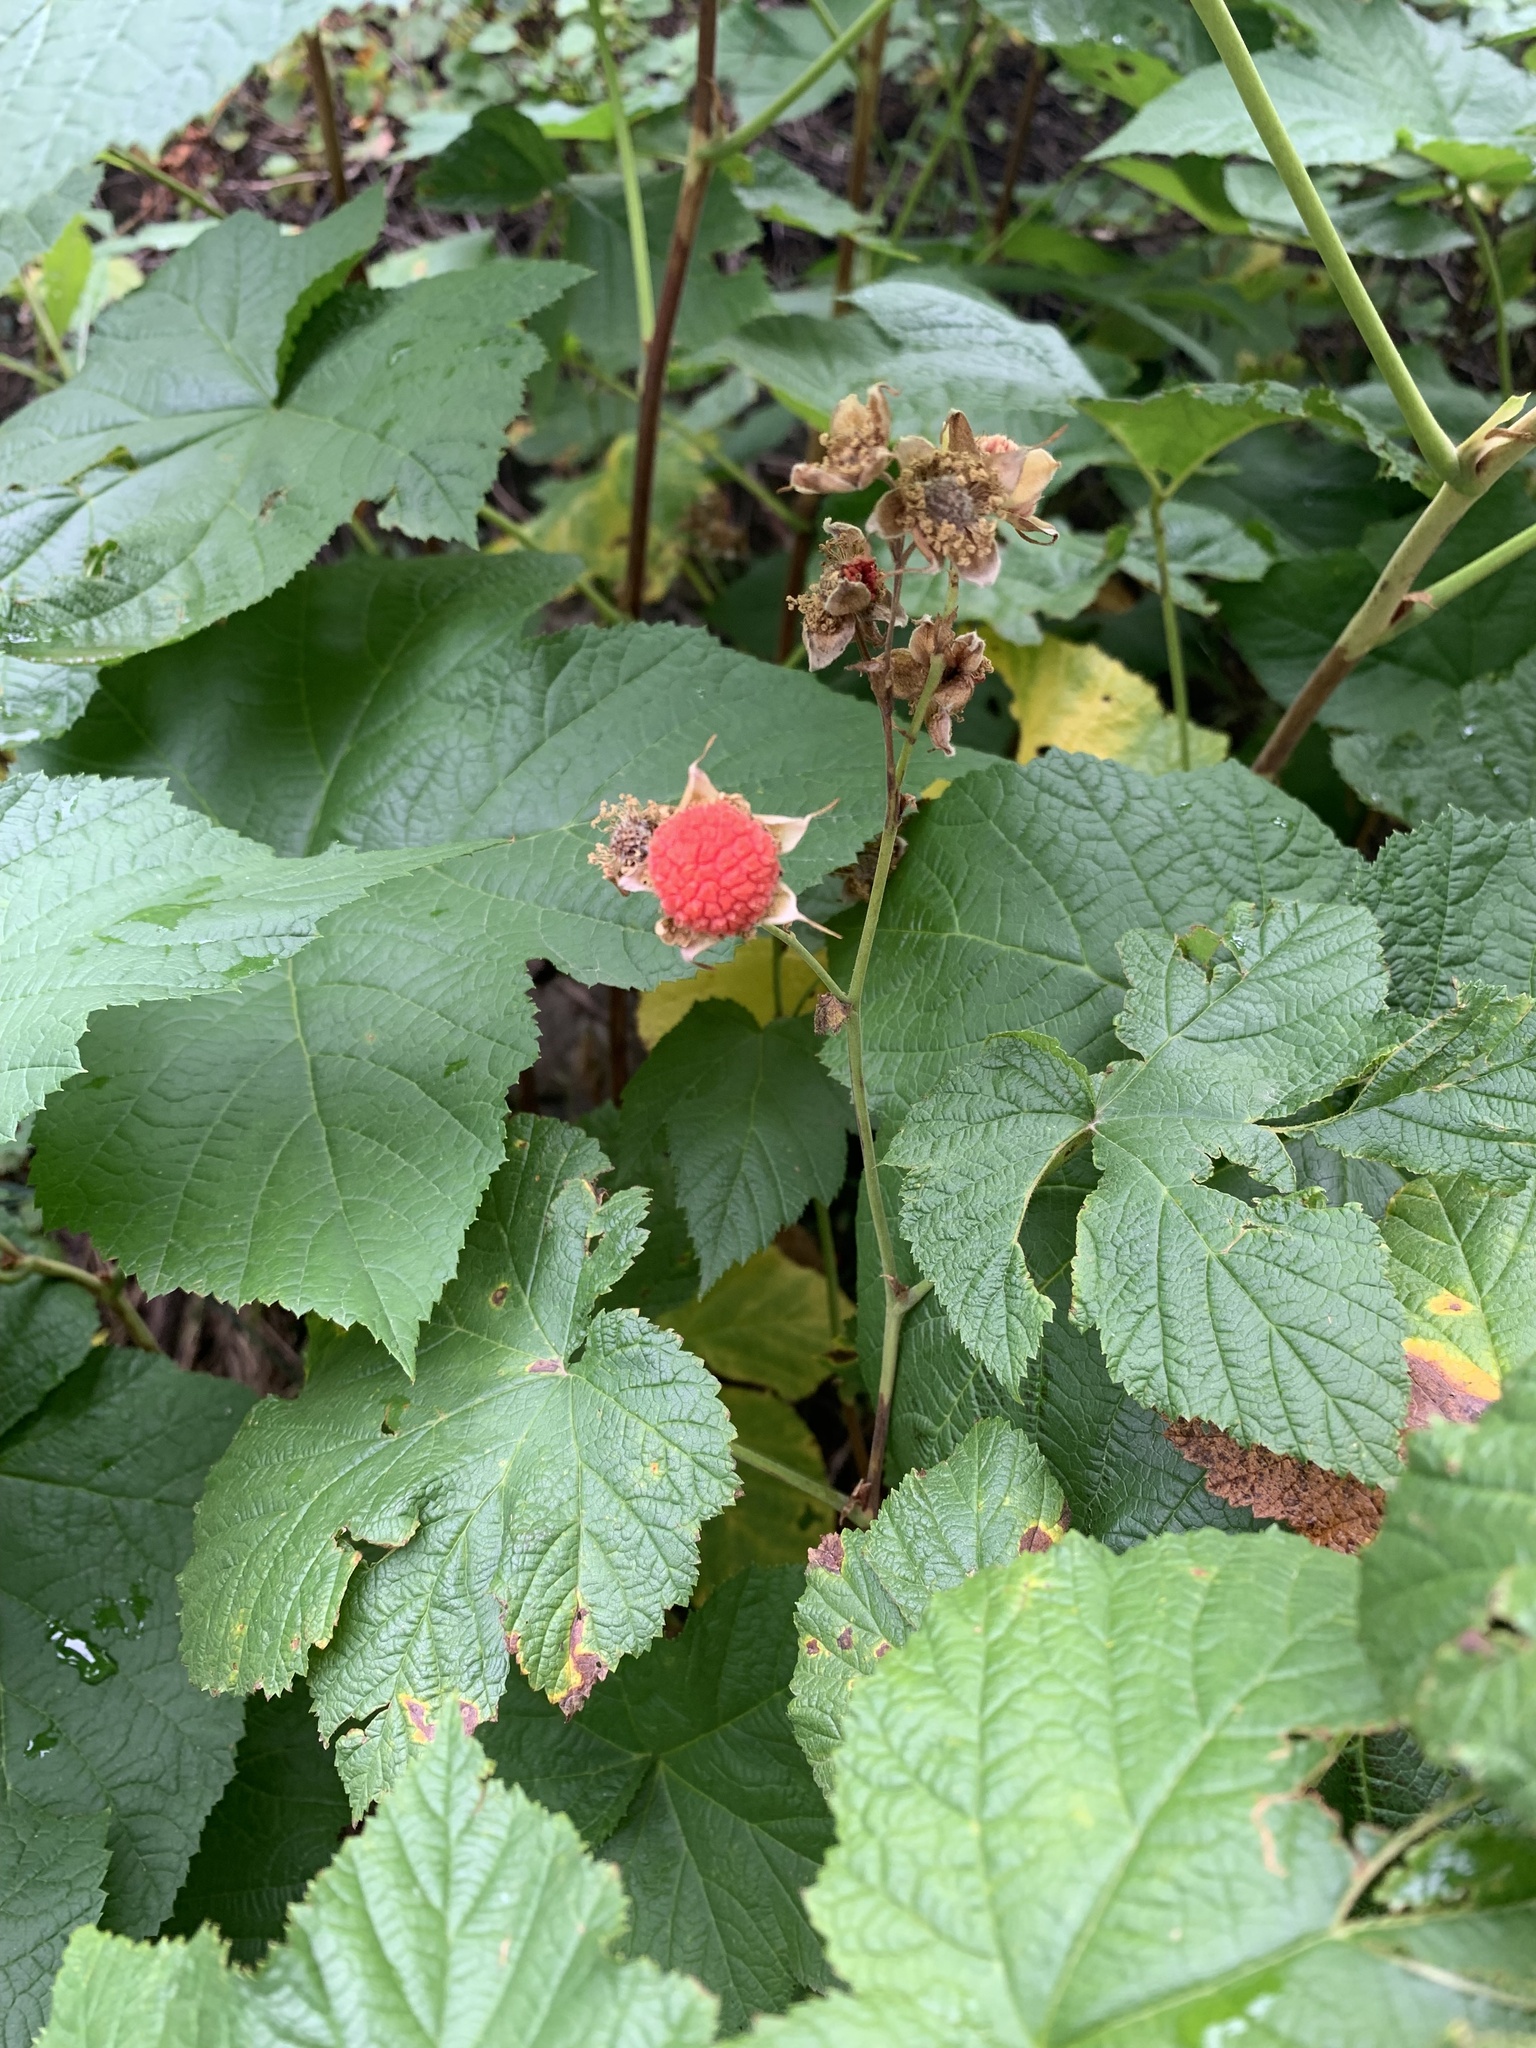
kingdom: Plantae
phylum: Tracheophyta
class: Magnoliopsida
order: Rosales
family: Rosaceae
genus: Rubus
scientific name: Rubus parviflorus
